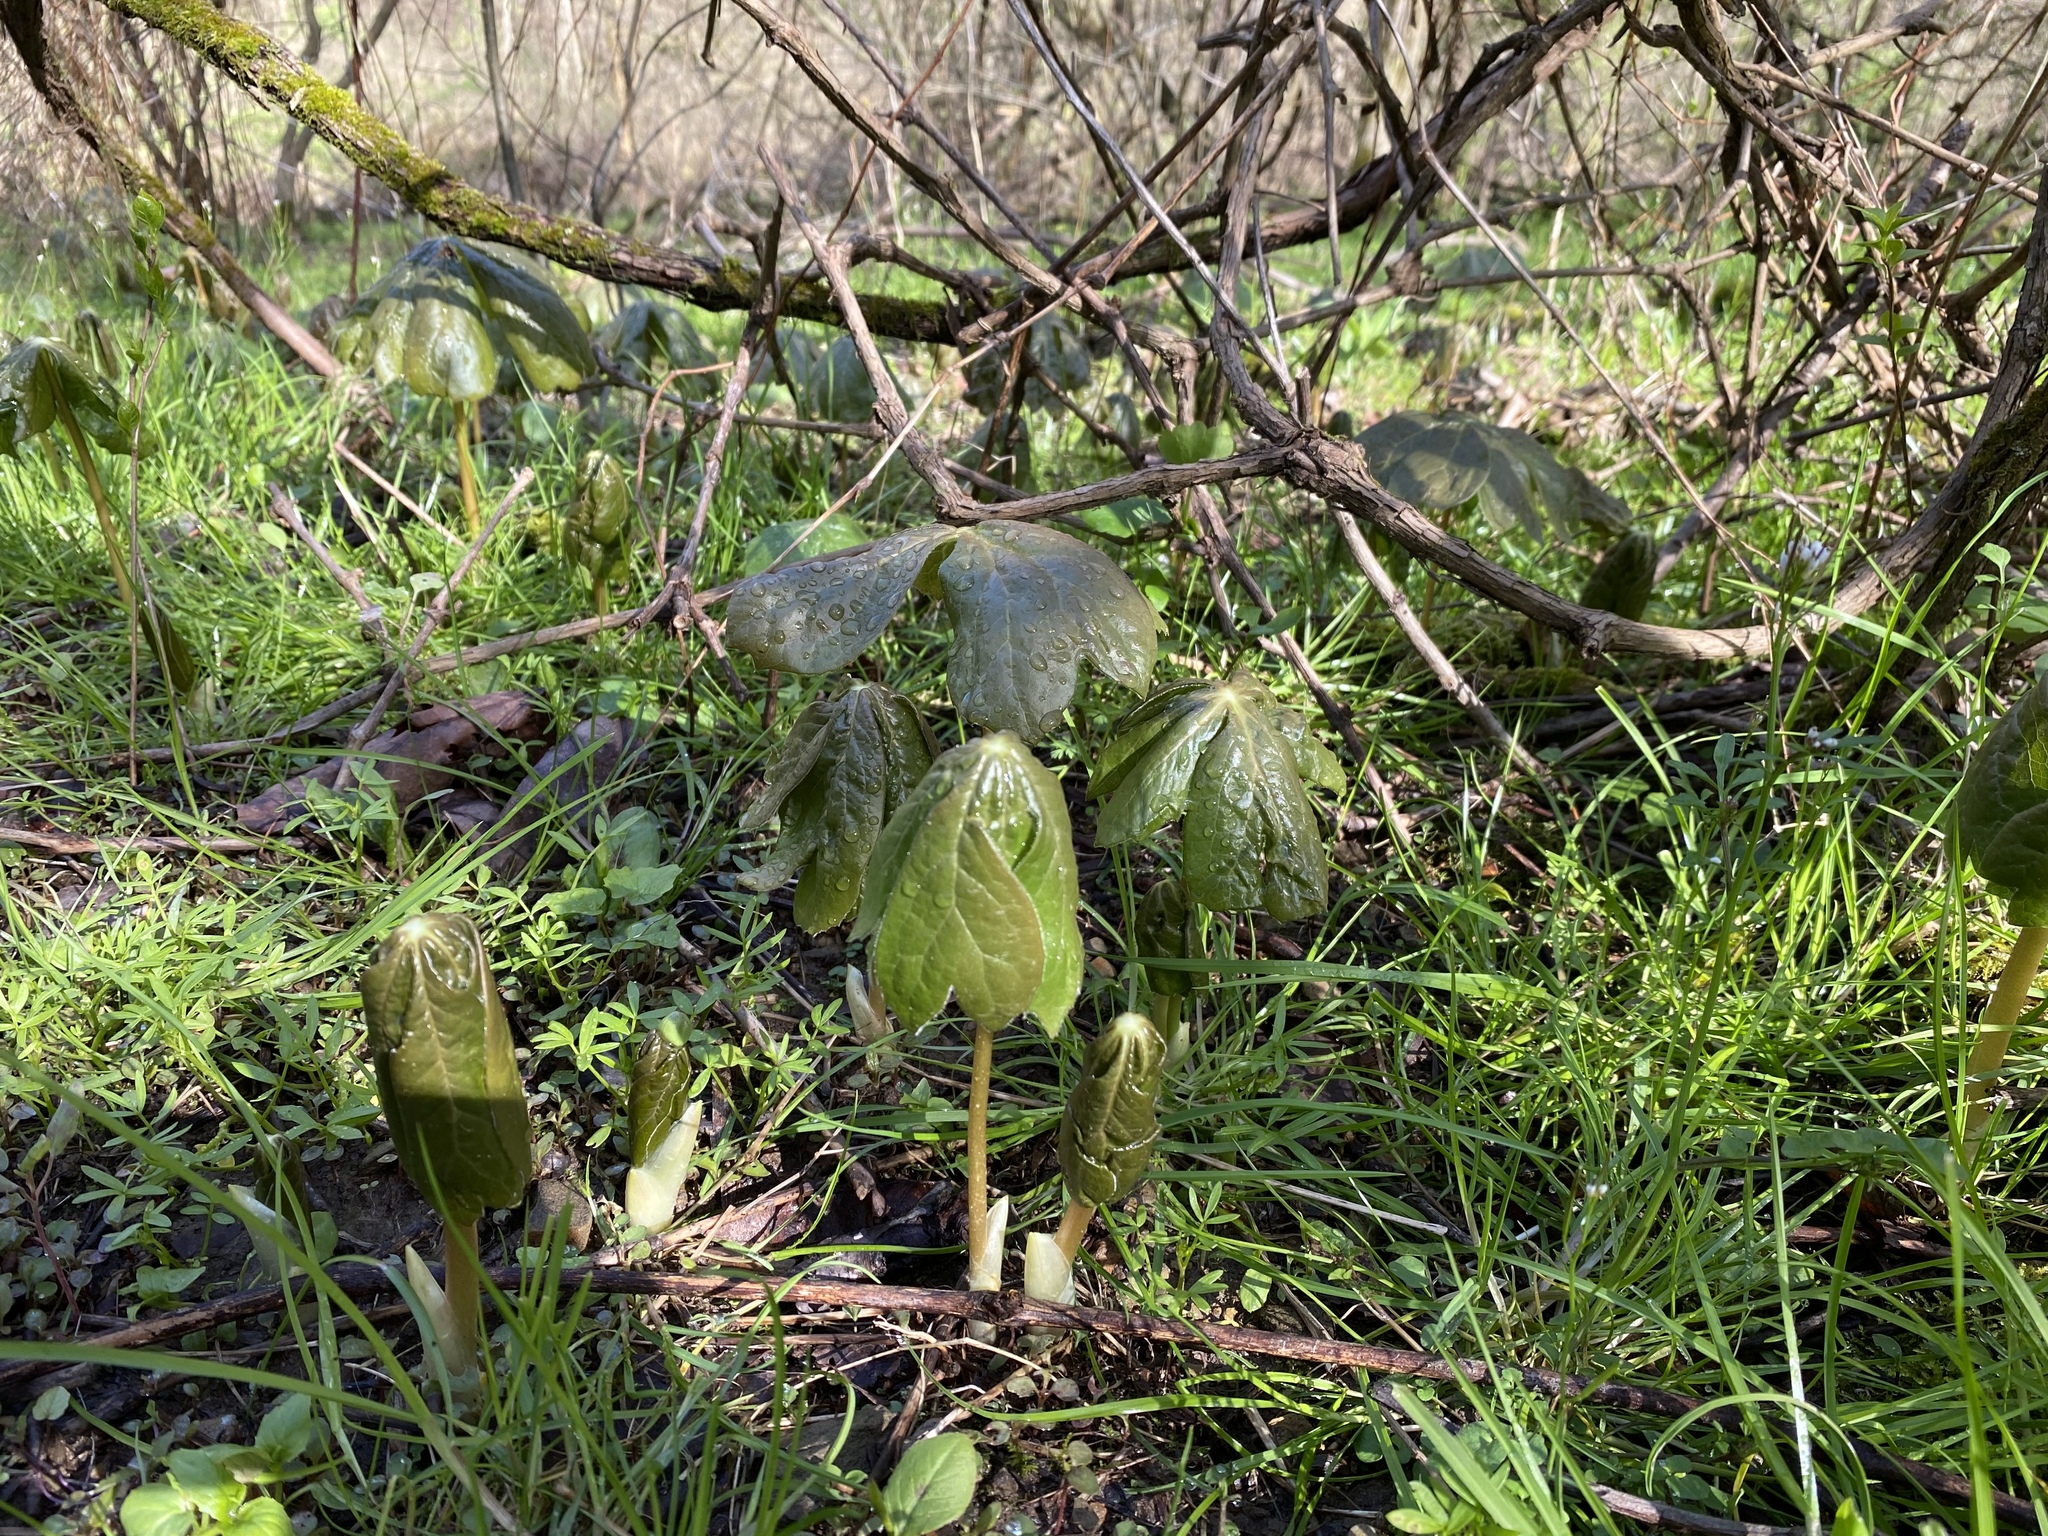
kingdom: Plantae
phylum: Tracheophyta
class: Magnoliopsida
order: Ranunculales
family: Berberidaceae
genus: Podophyllum
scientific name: Podophyllum peltatum
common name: Wild mandrake
